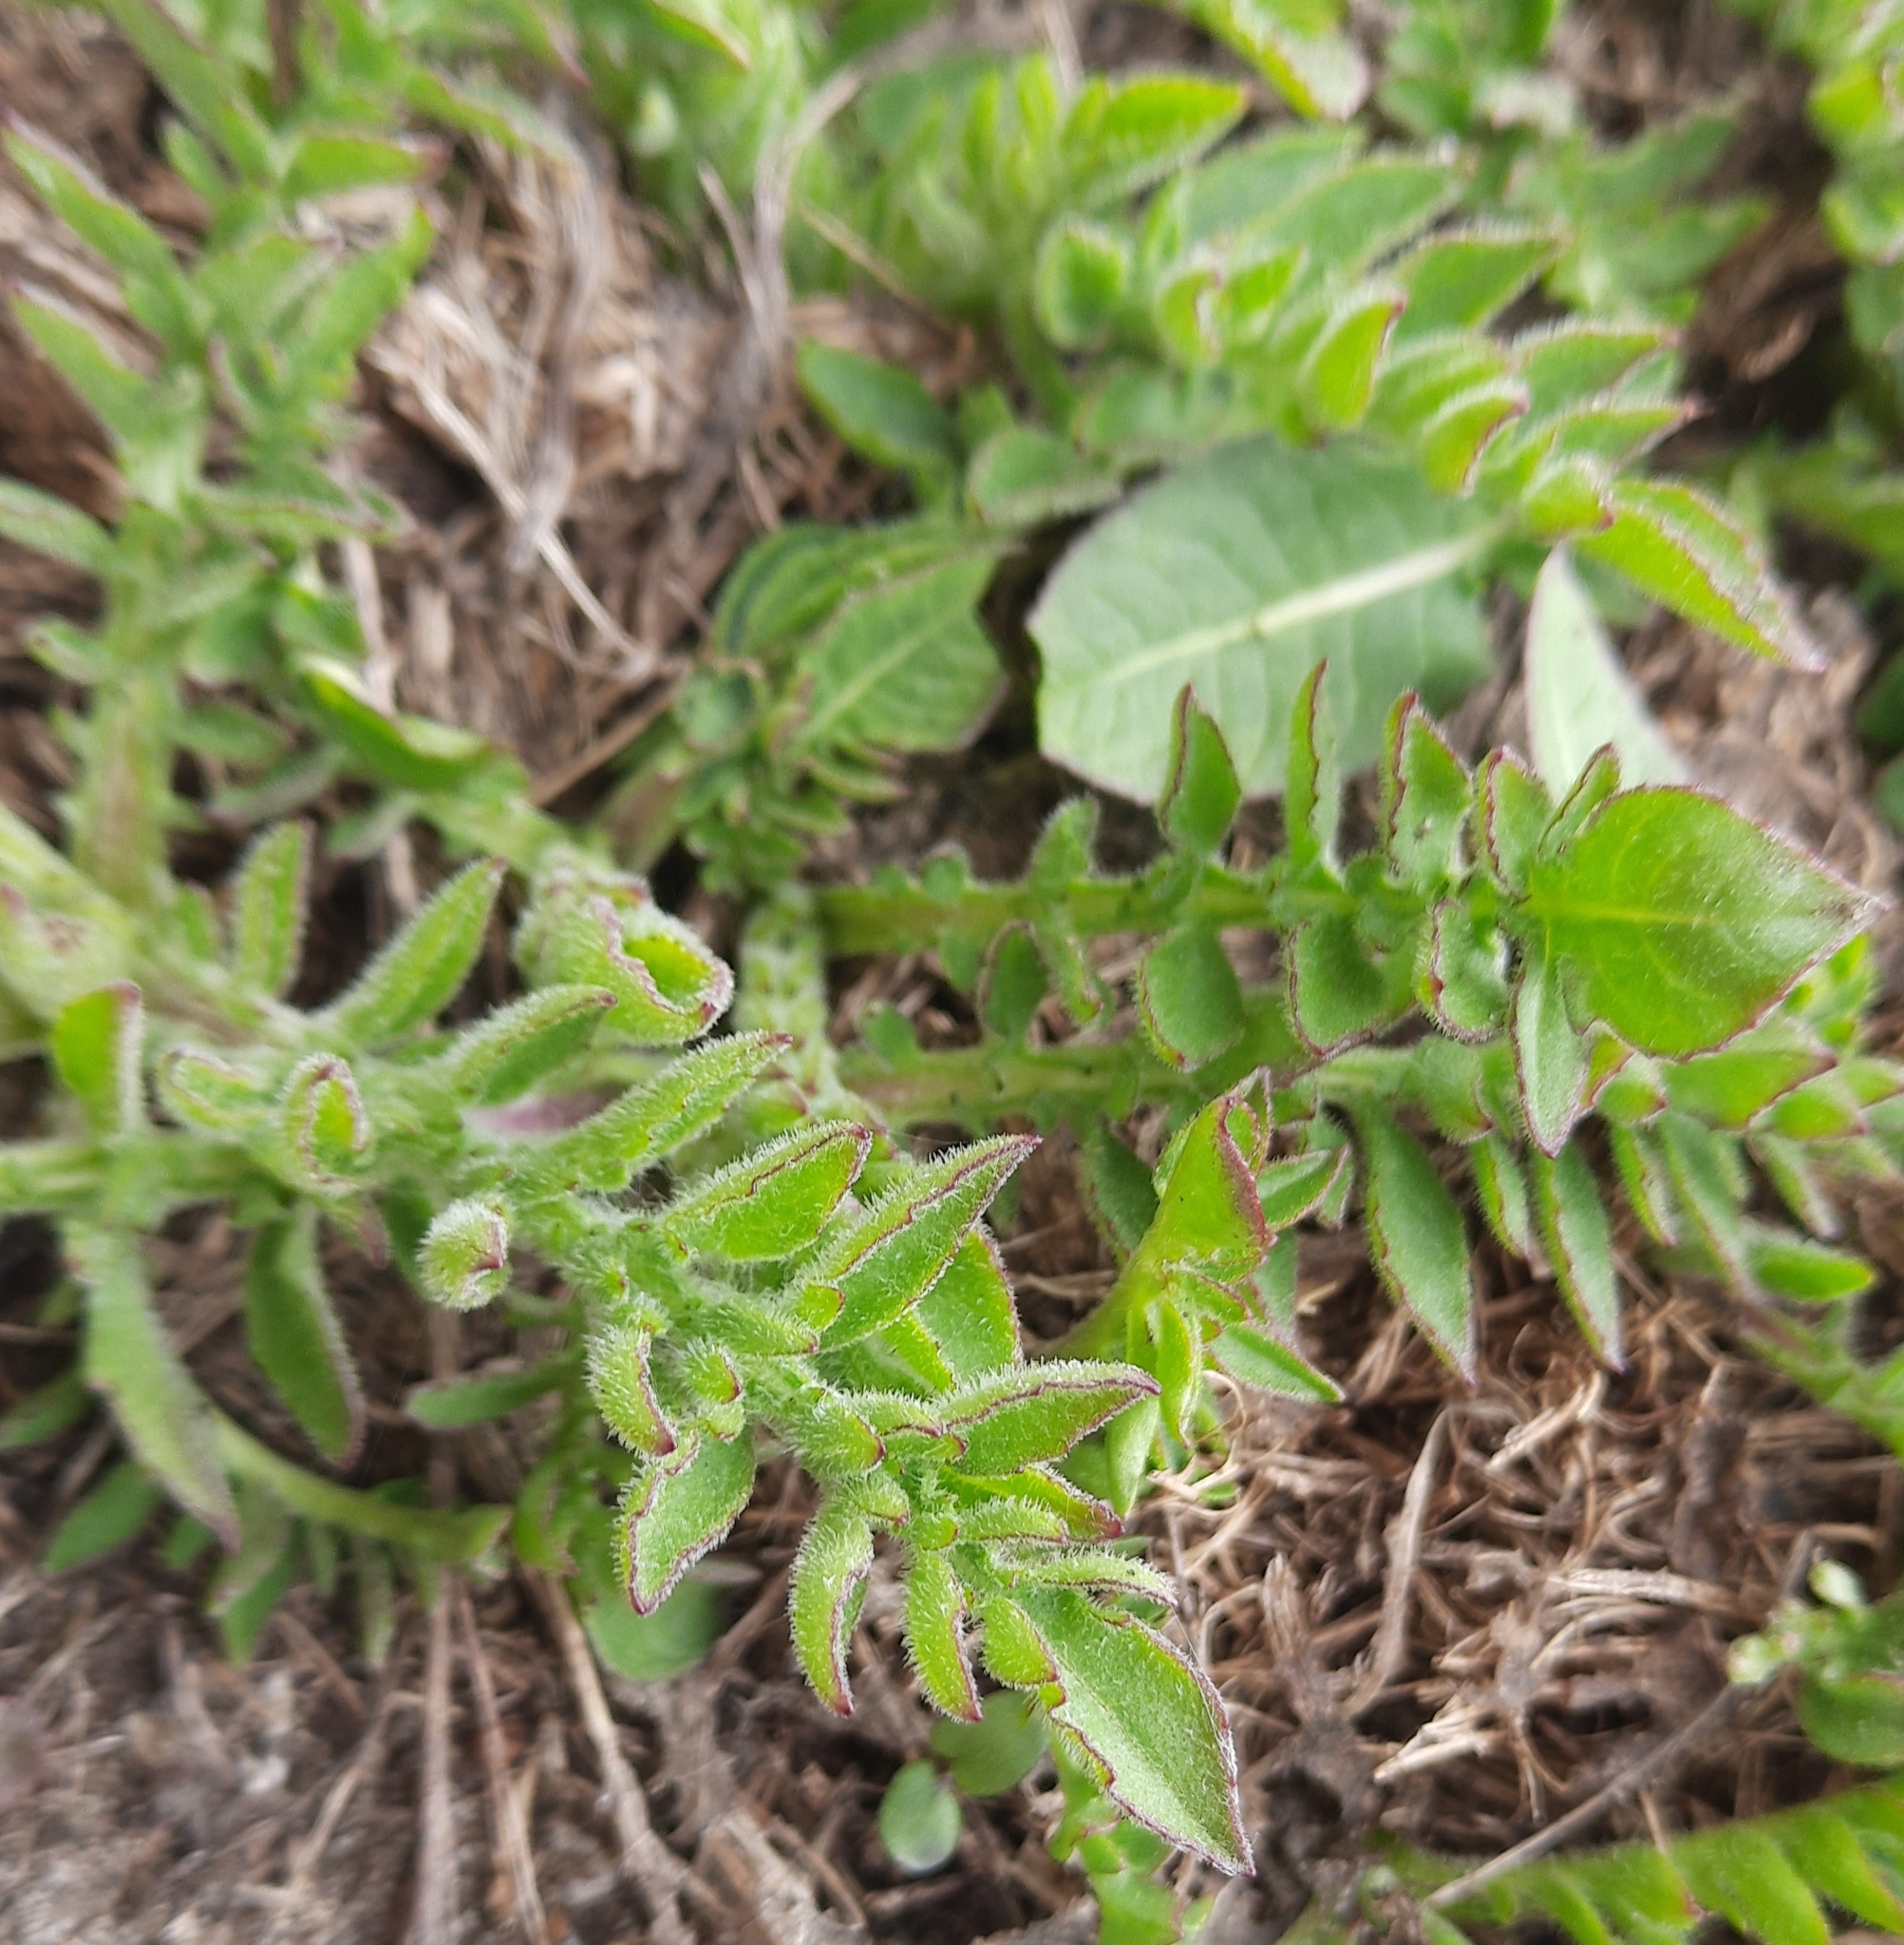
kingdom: Plantae
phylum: Tracheophyta
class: Magnoliopsida
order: Asterales
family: Asteraceae
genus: Centaurea
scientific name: Centaurea scabiosa
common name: Greater knapweed
